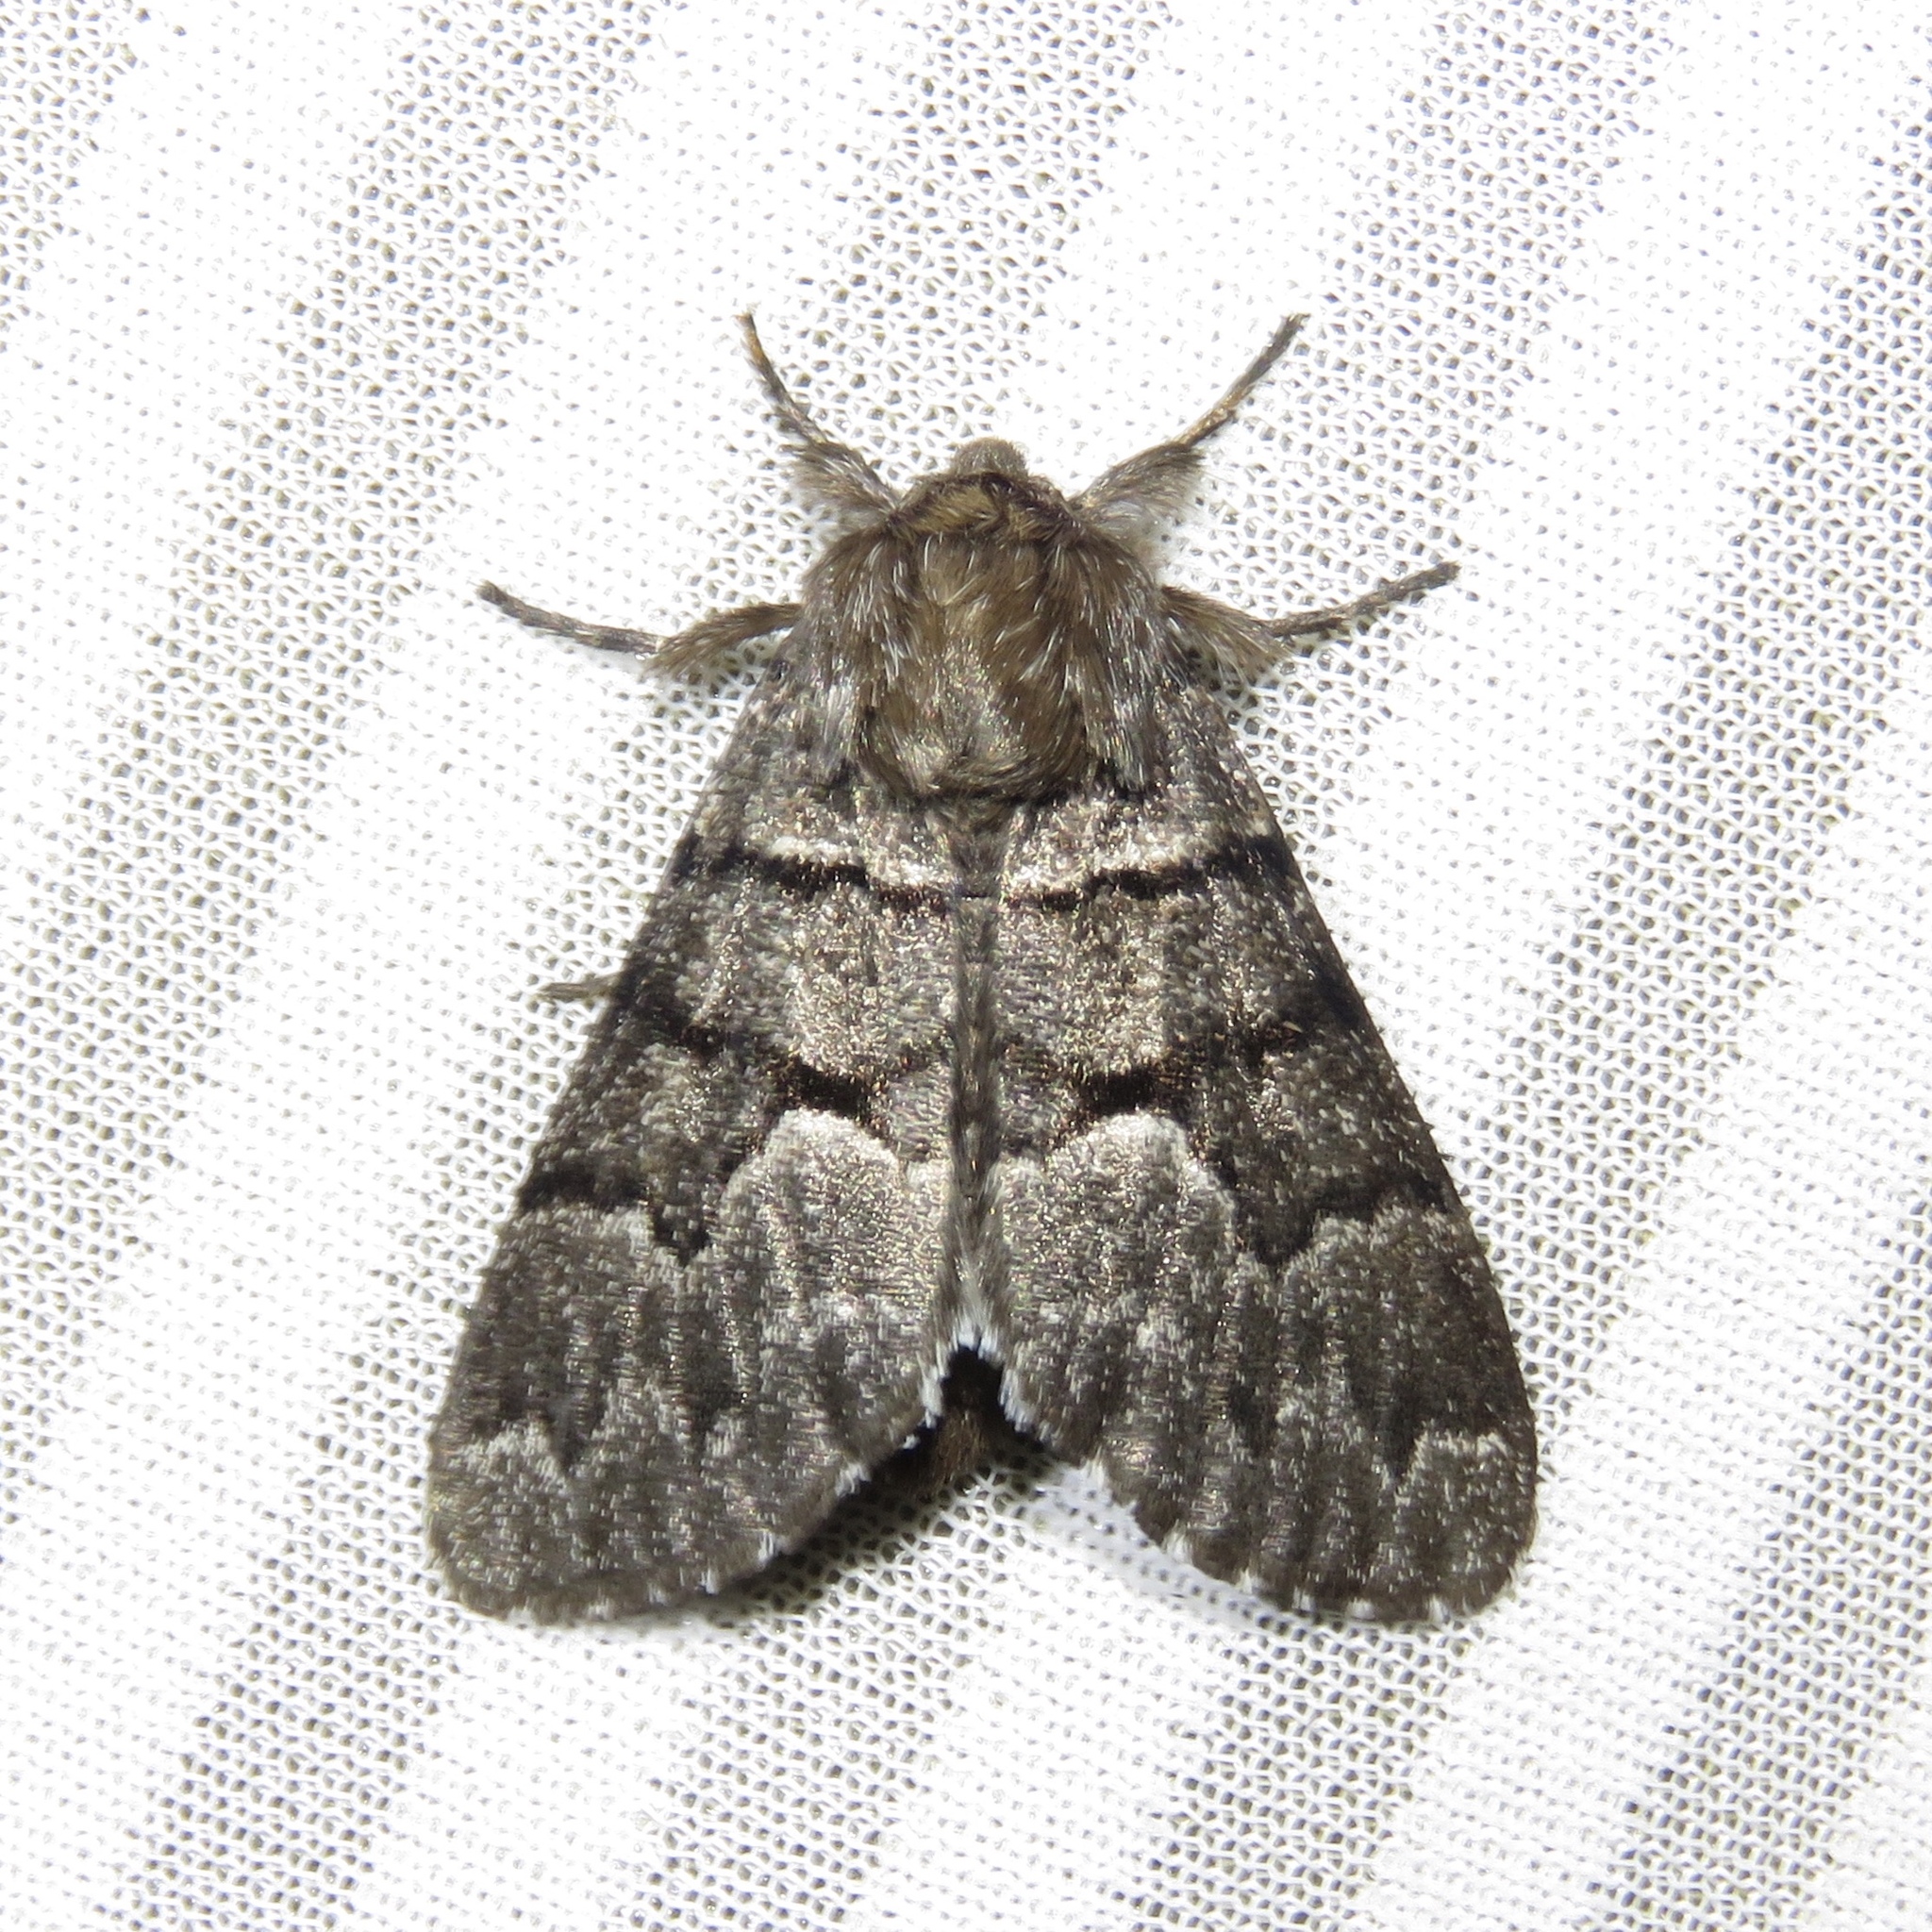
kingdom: Animalia
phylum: Arthropoda
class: Insecta
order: Lepidoptera
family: Noctuidae
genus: Panthea
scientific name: Panthea furcilla
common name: Eastern panthea moth
